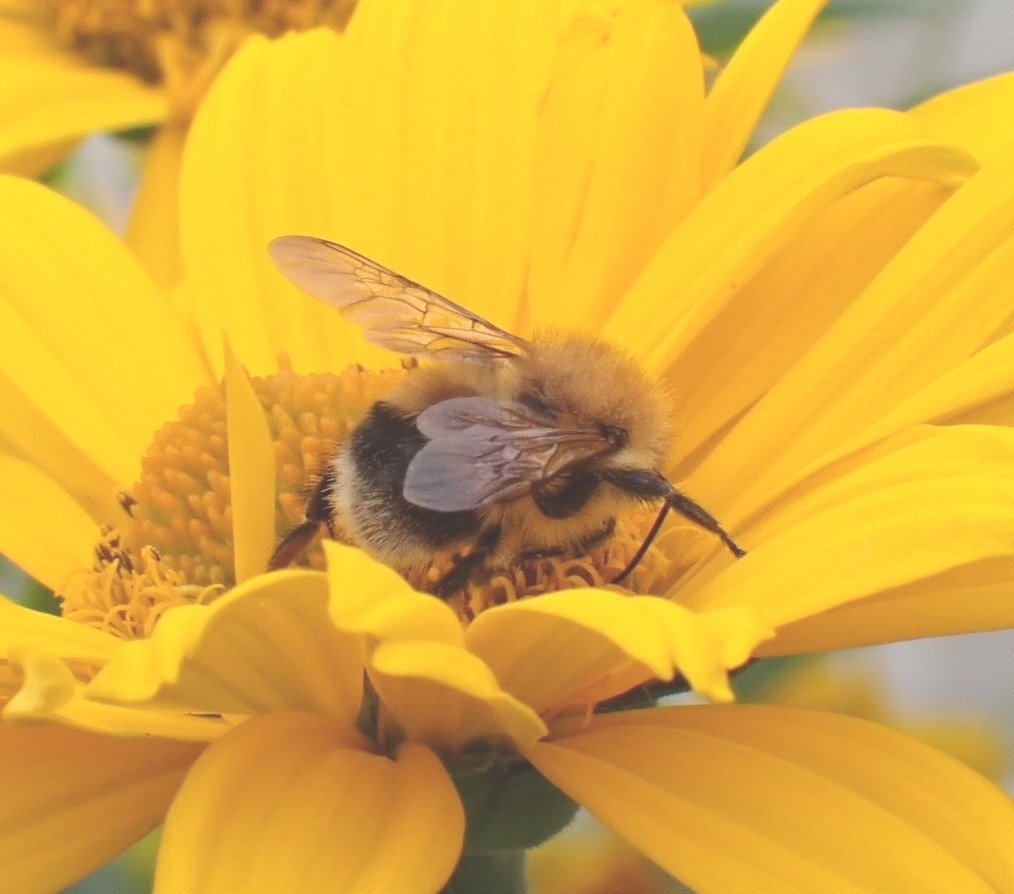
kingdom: Animalia
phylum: Arthropoda
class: Insecta
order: Hymenoptera
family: Apidae
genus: Bombus
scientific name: Bombus hypnorum
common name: New garden bumblebee
